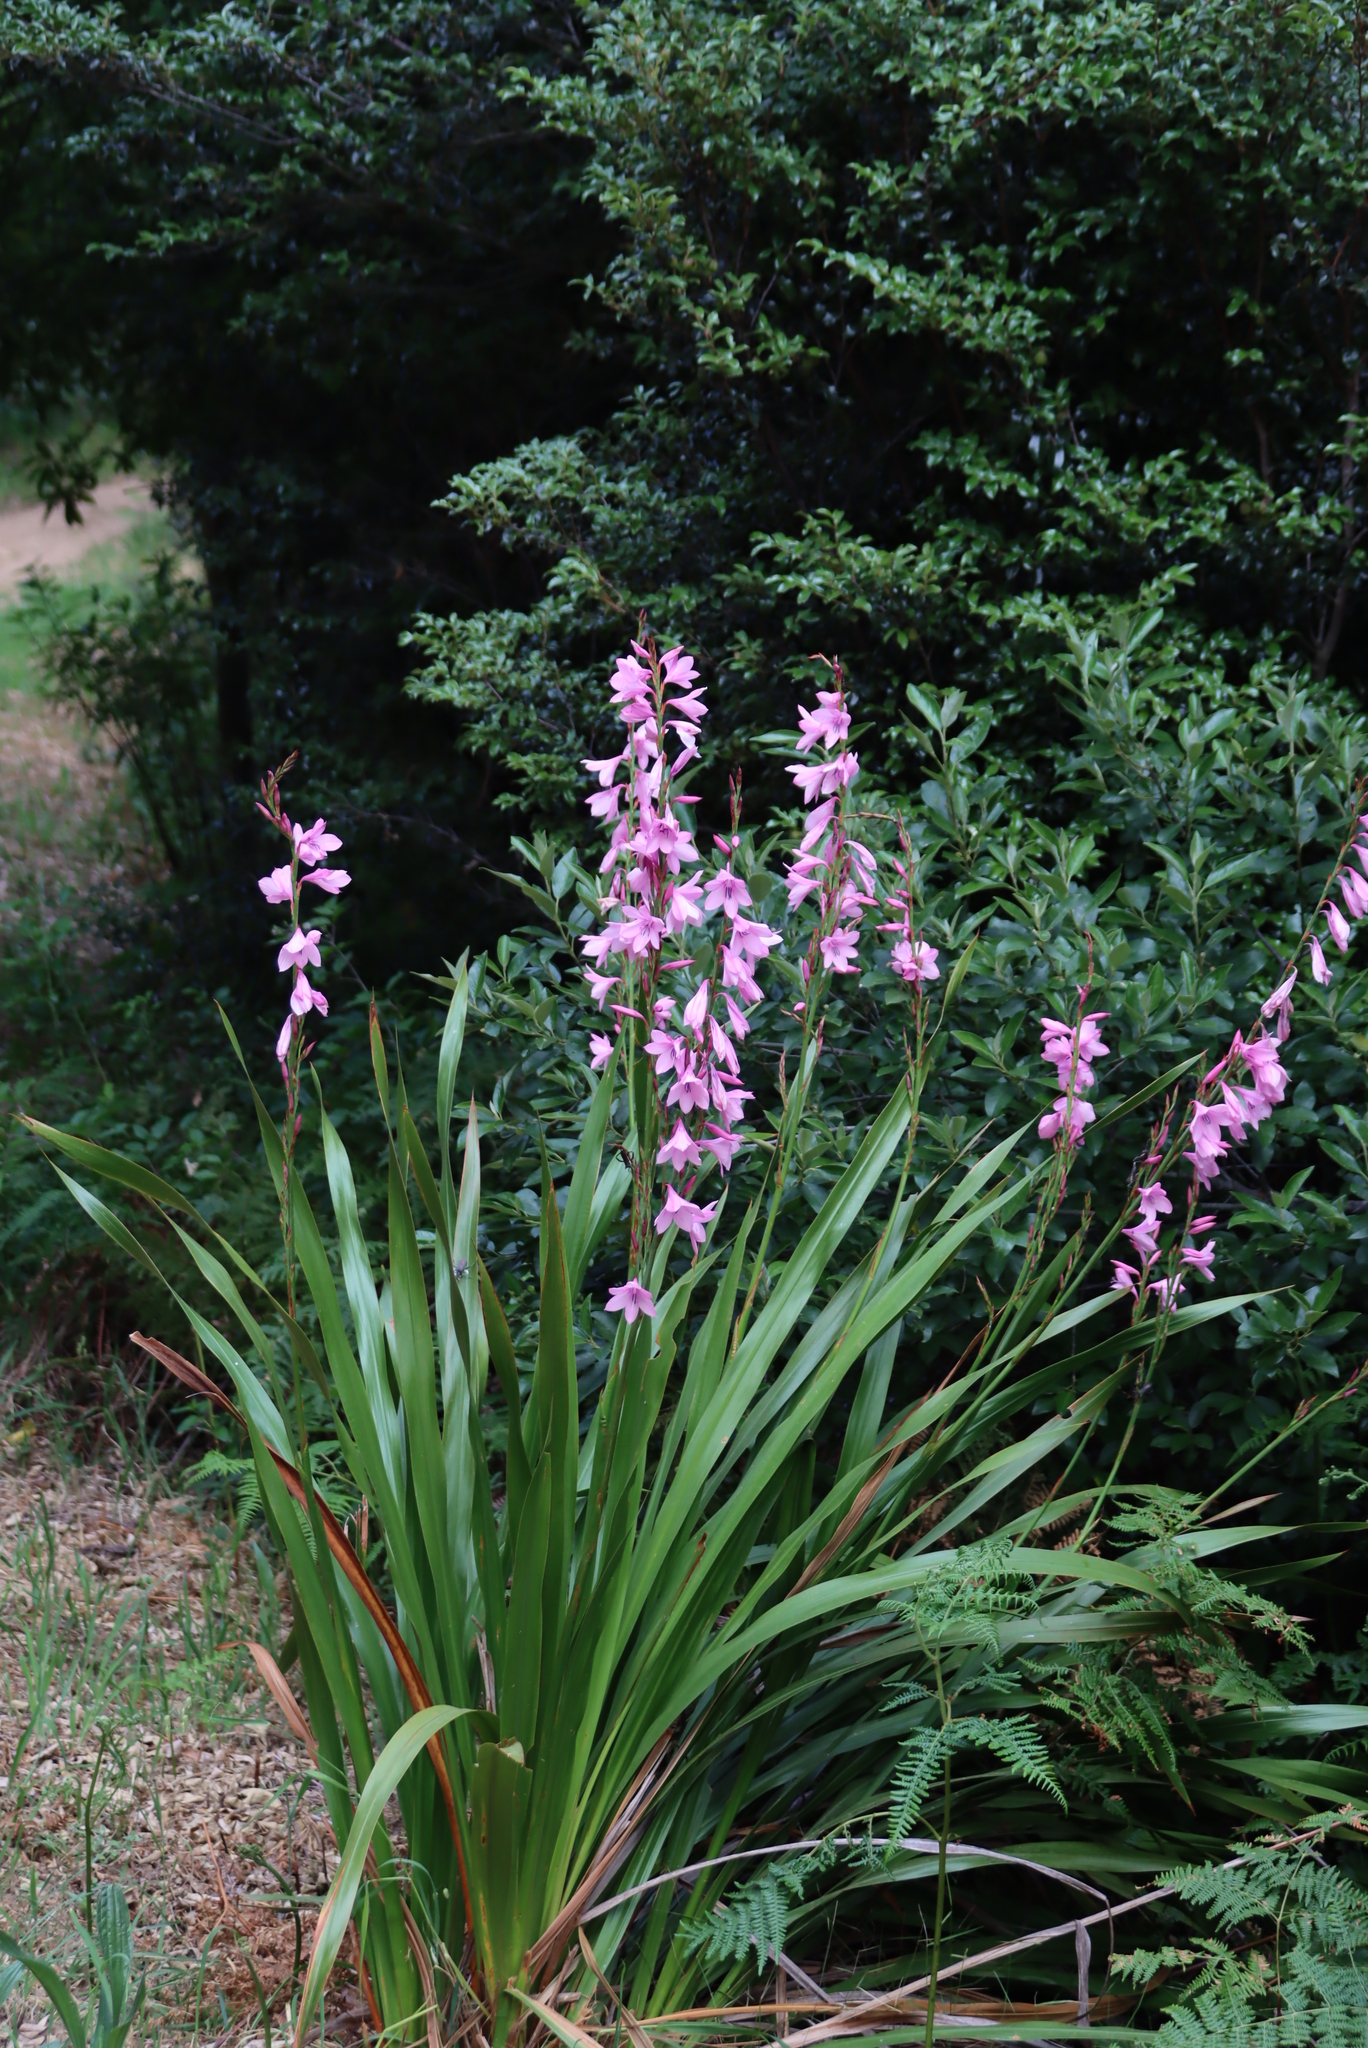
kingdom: Plantae
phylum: Tracheophyta
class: Liliopsida
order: Asparagales
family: Iridaceae
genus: Watsonia
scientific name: Watsonia borbonica
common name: Bugle-lily
